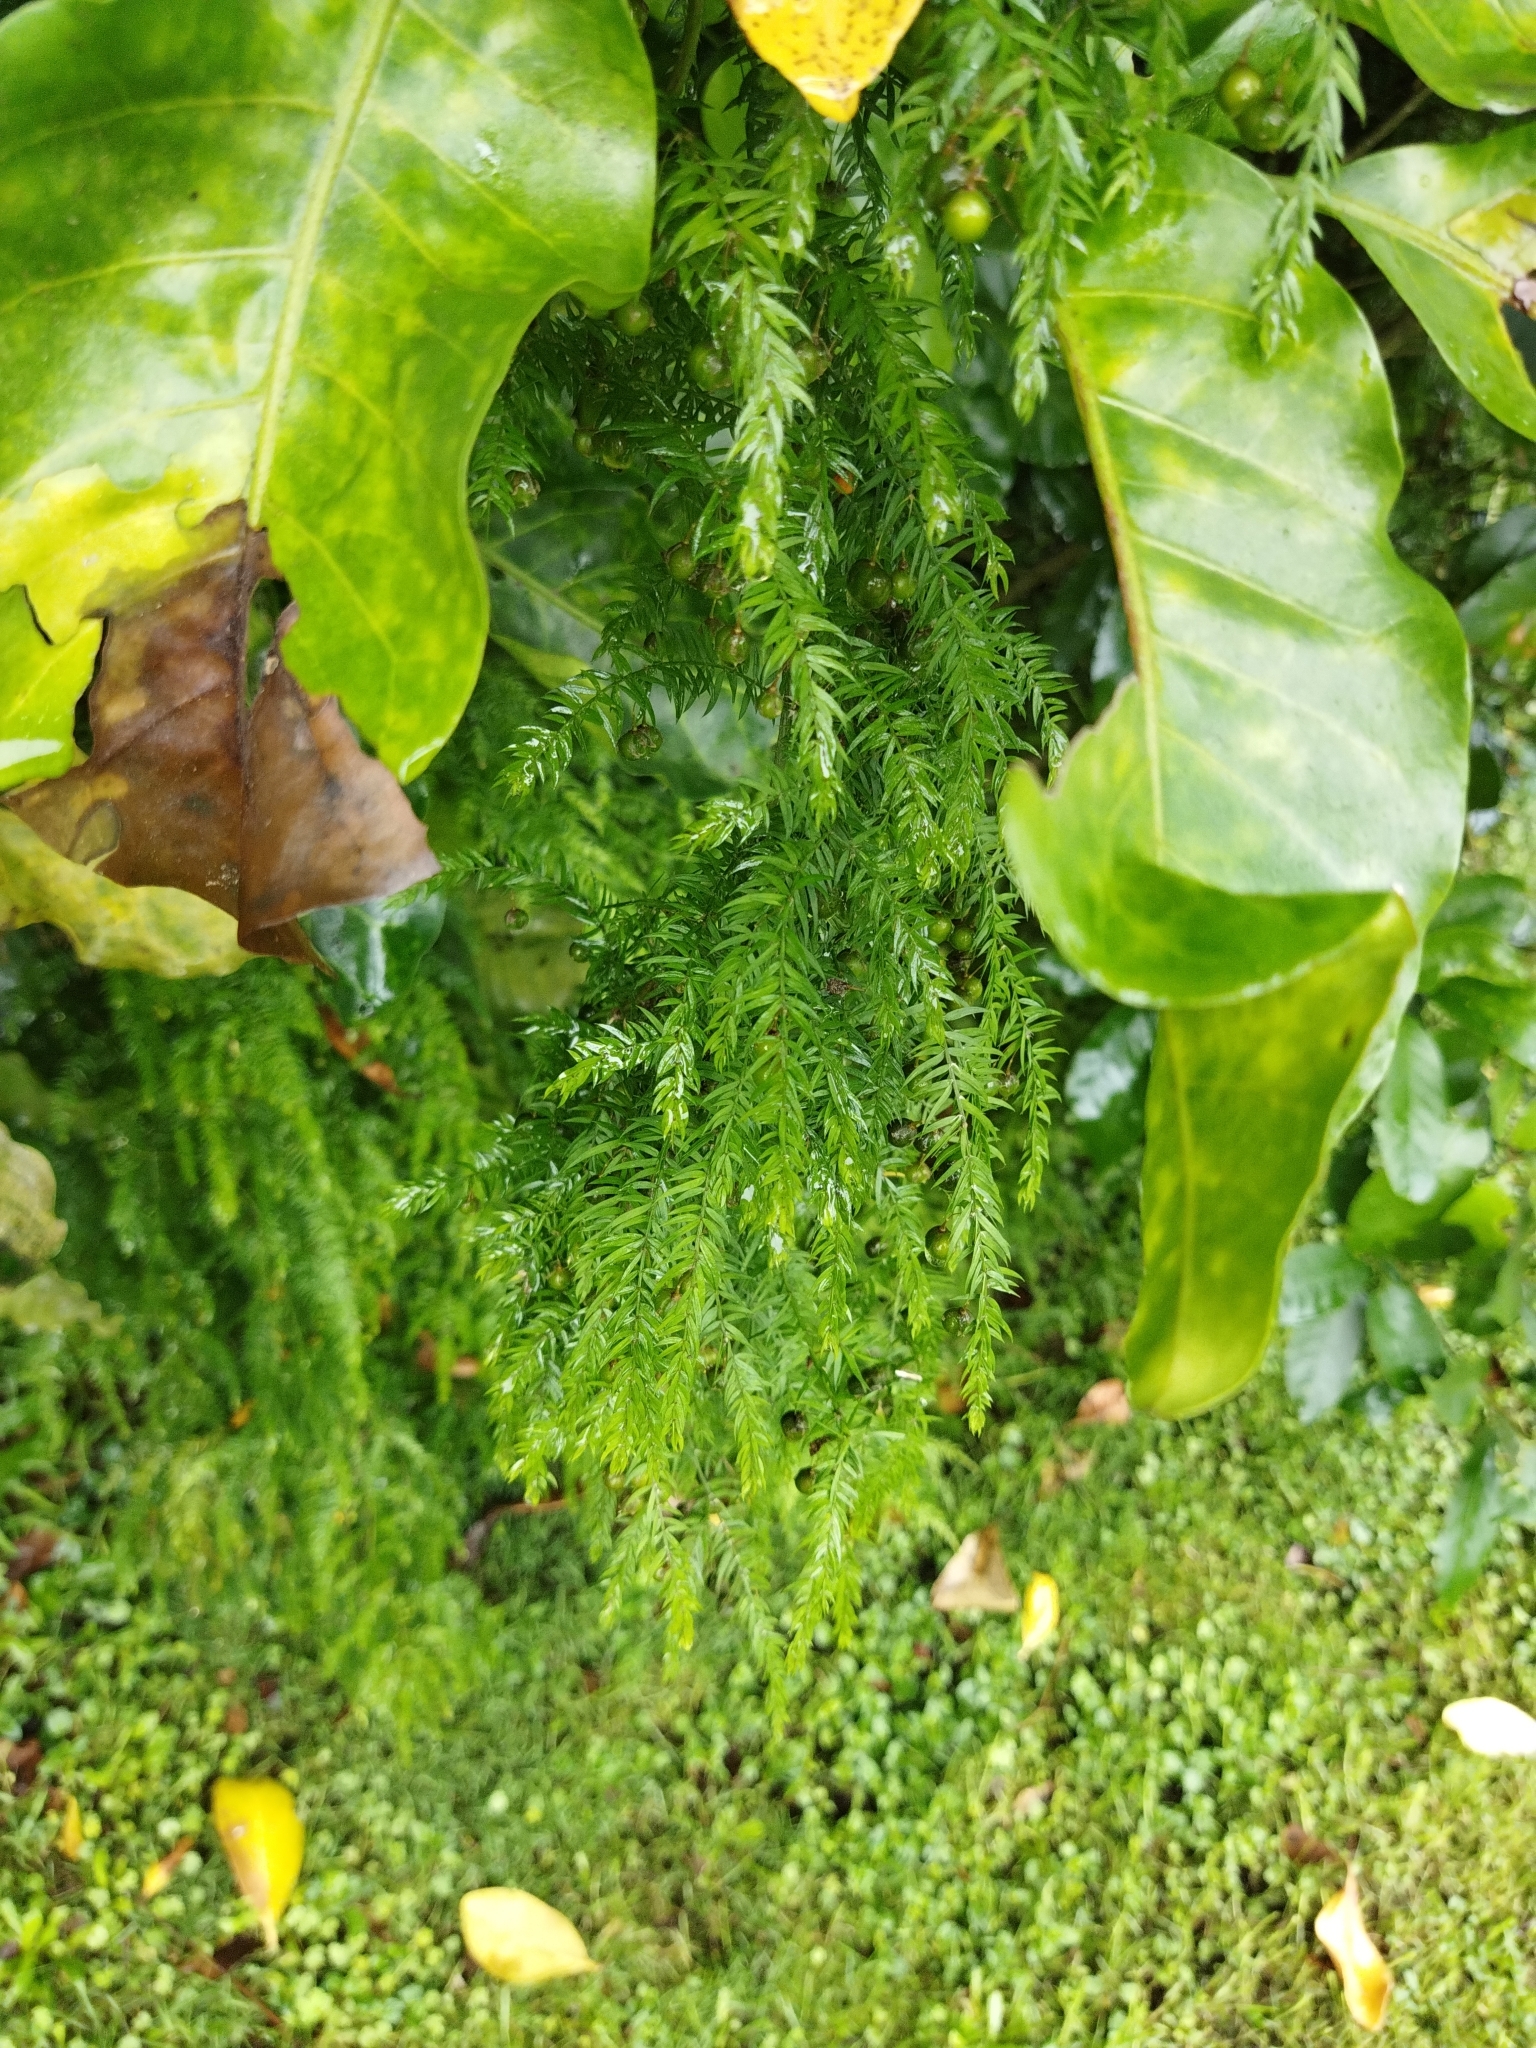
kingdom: Plantae
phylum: Tracheophyta
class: Liliopsida
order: Asparagales
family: Asparagaceae
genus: Asparagus
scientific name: Asparagus scandens
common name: Asparagus-fern
